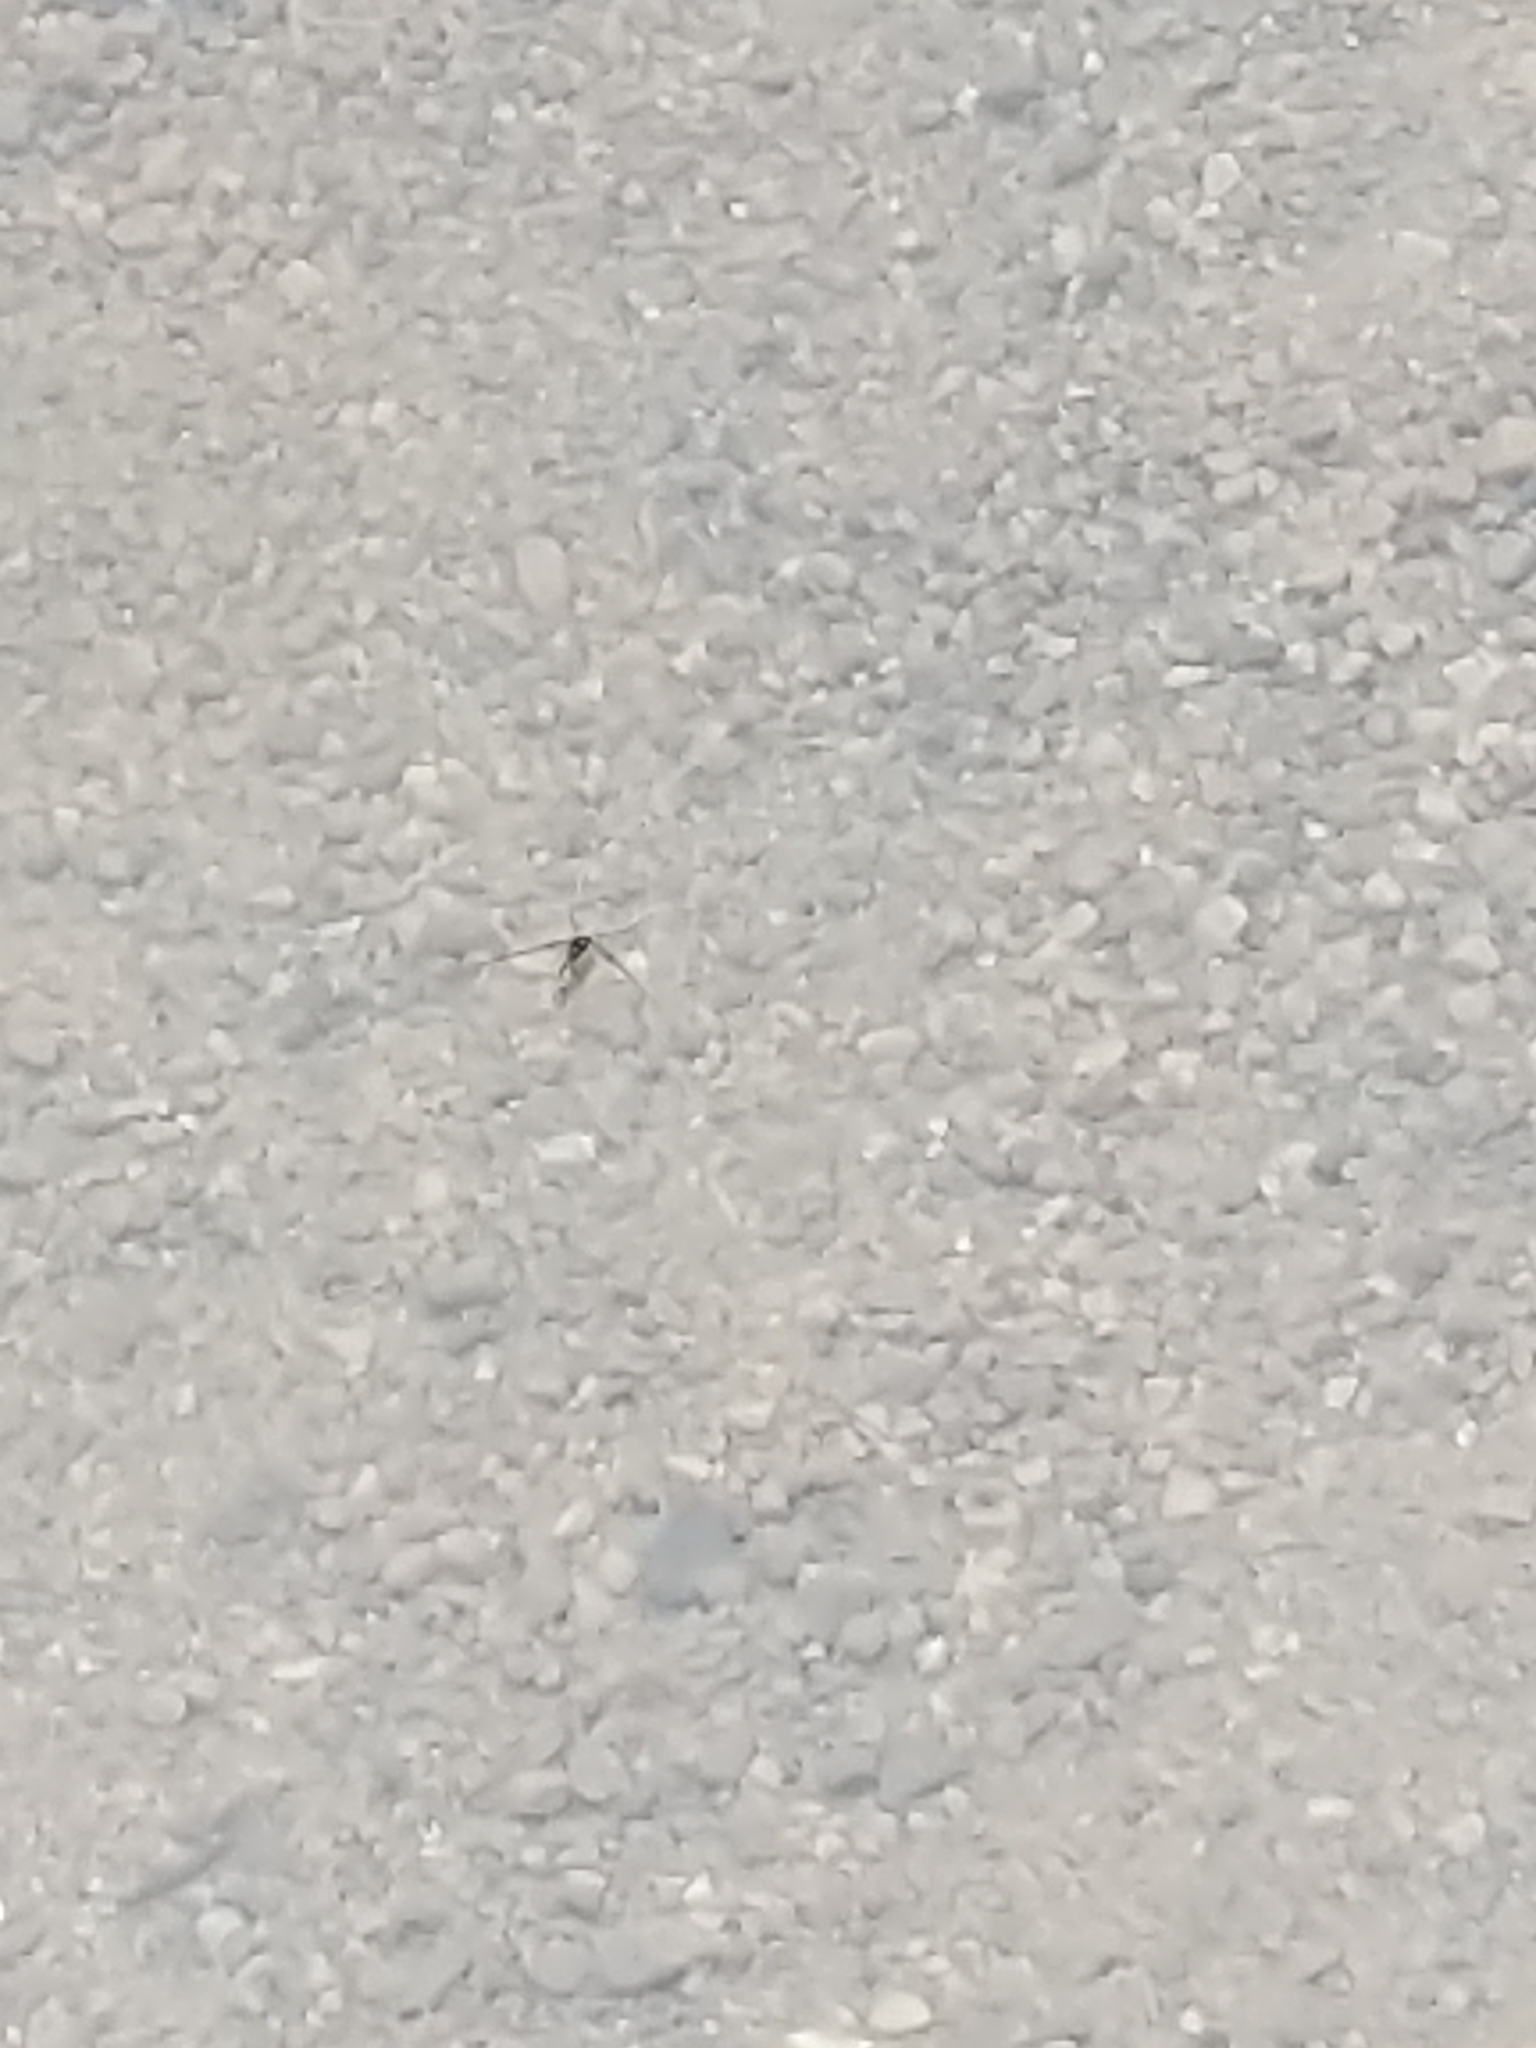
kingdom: Animalia
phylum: Arthropoda
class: Insecta
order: Hemiptera
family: Gerridae
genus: Trepobates
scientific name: Trepobates
